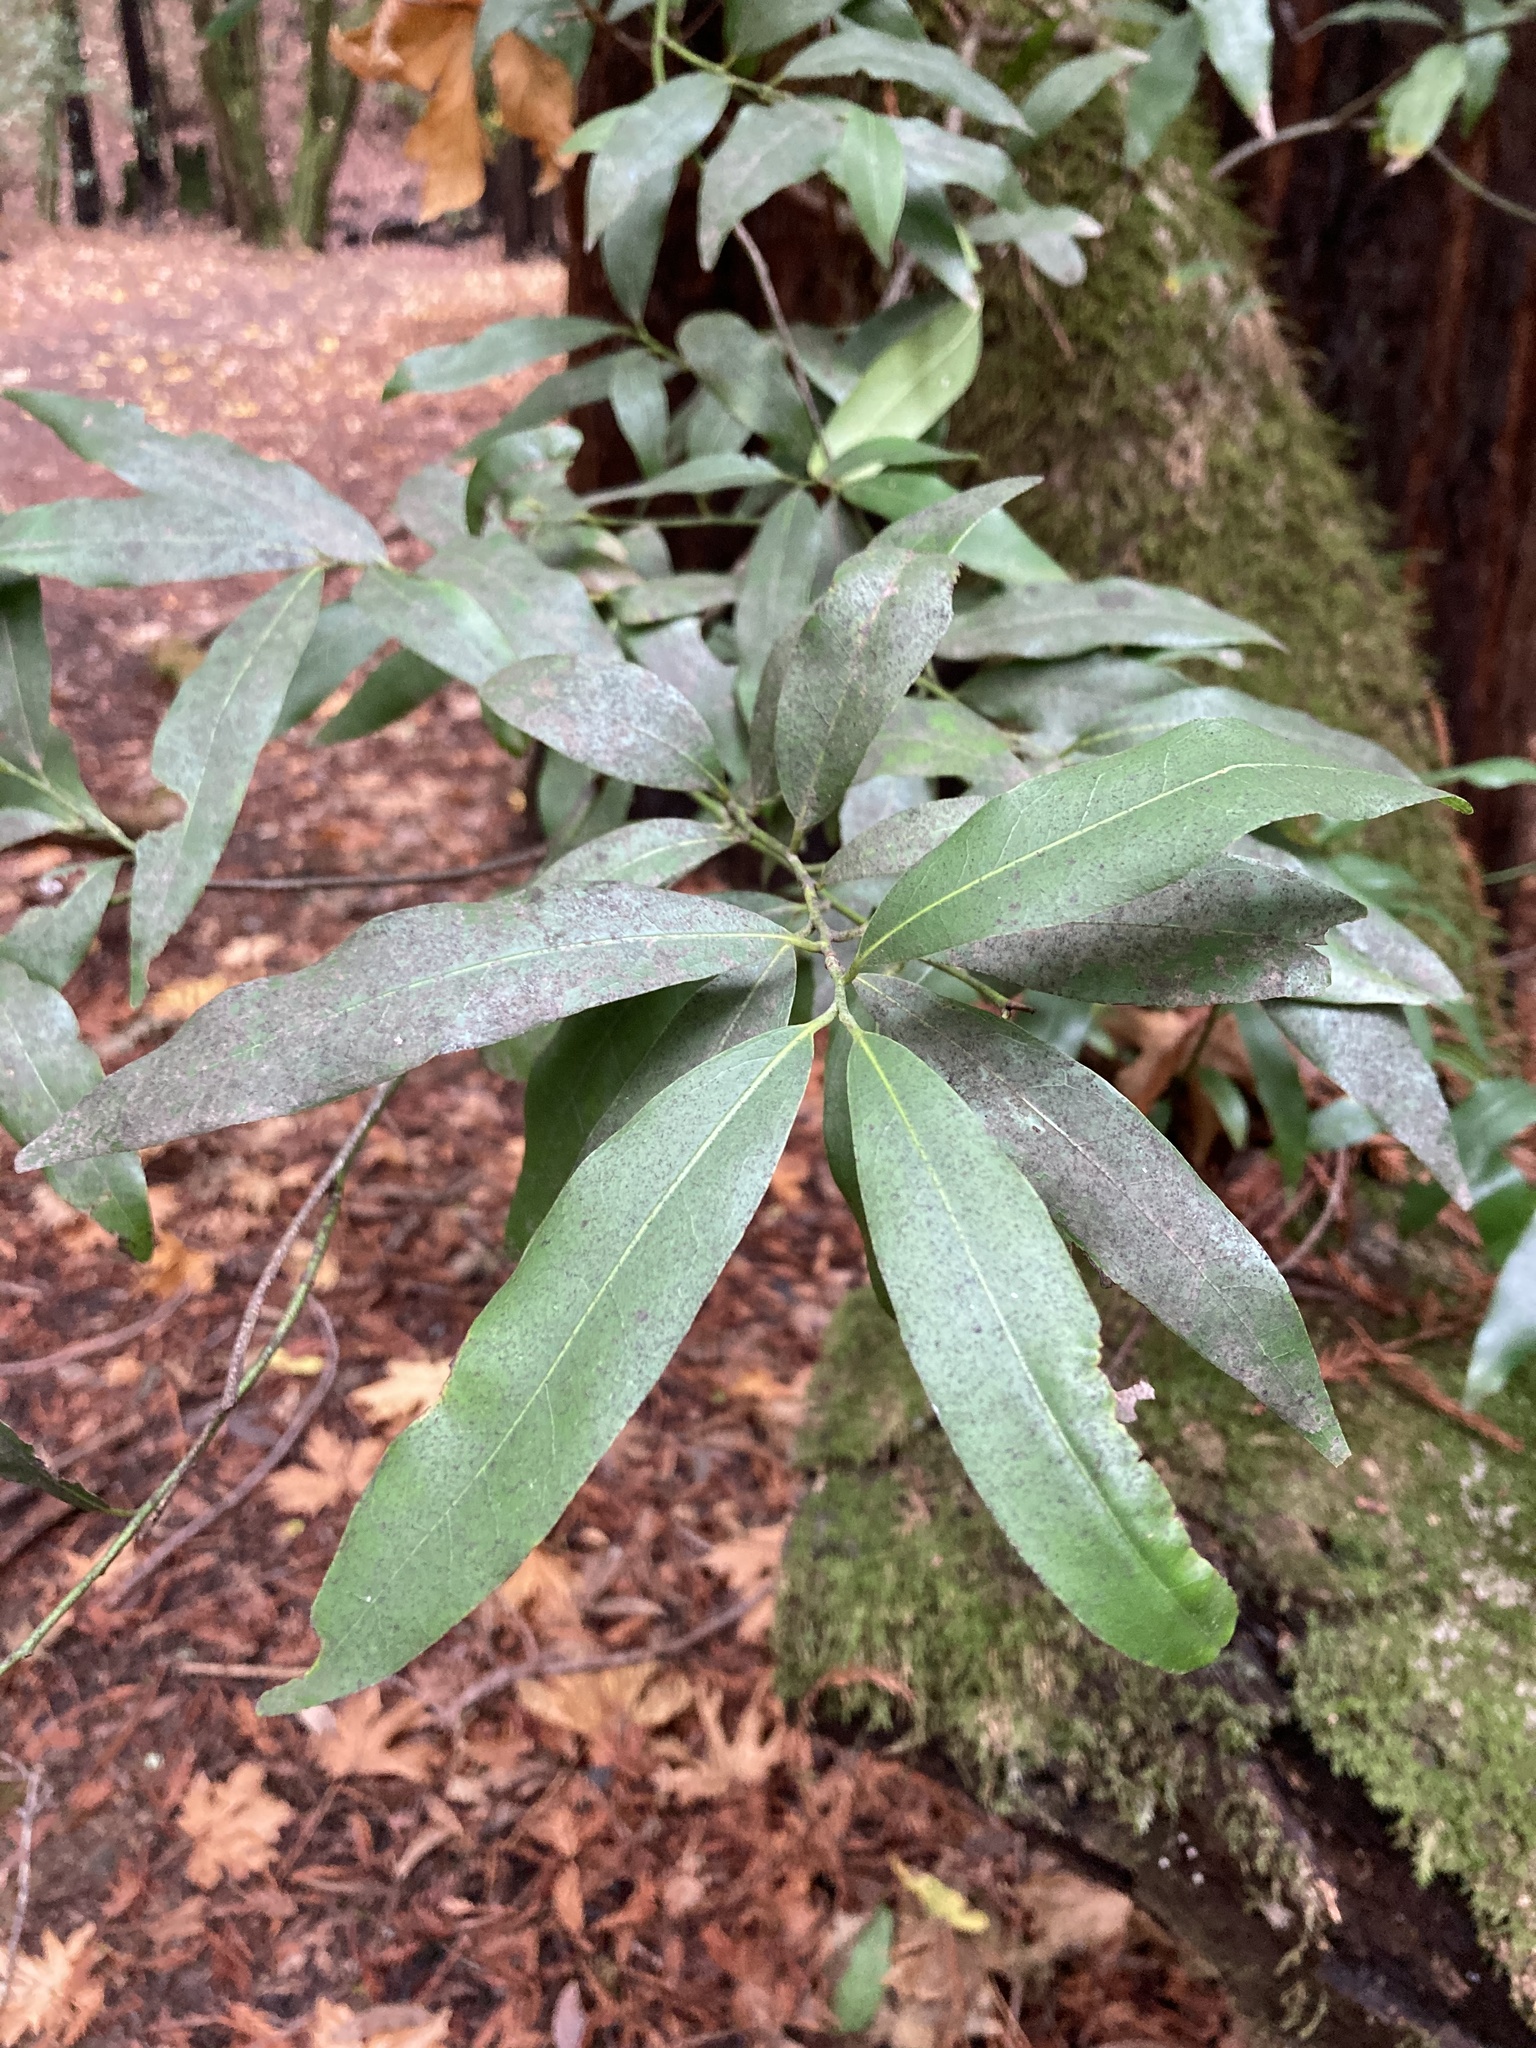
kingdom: Plantae
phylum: Tracheophyta
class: Magnoliopsida
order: Laurales
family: Lauraceae
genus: Umbellularia
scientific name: Umbellularia californica
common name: California bay
